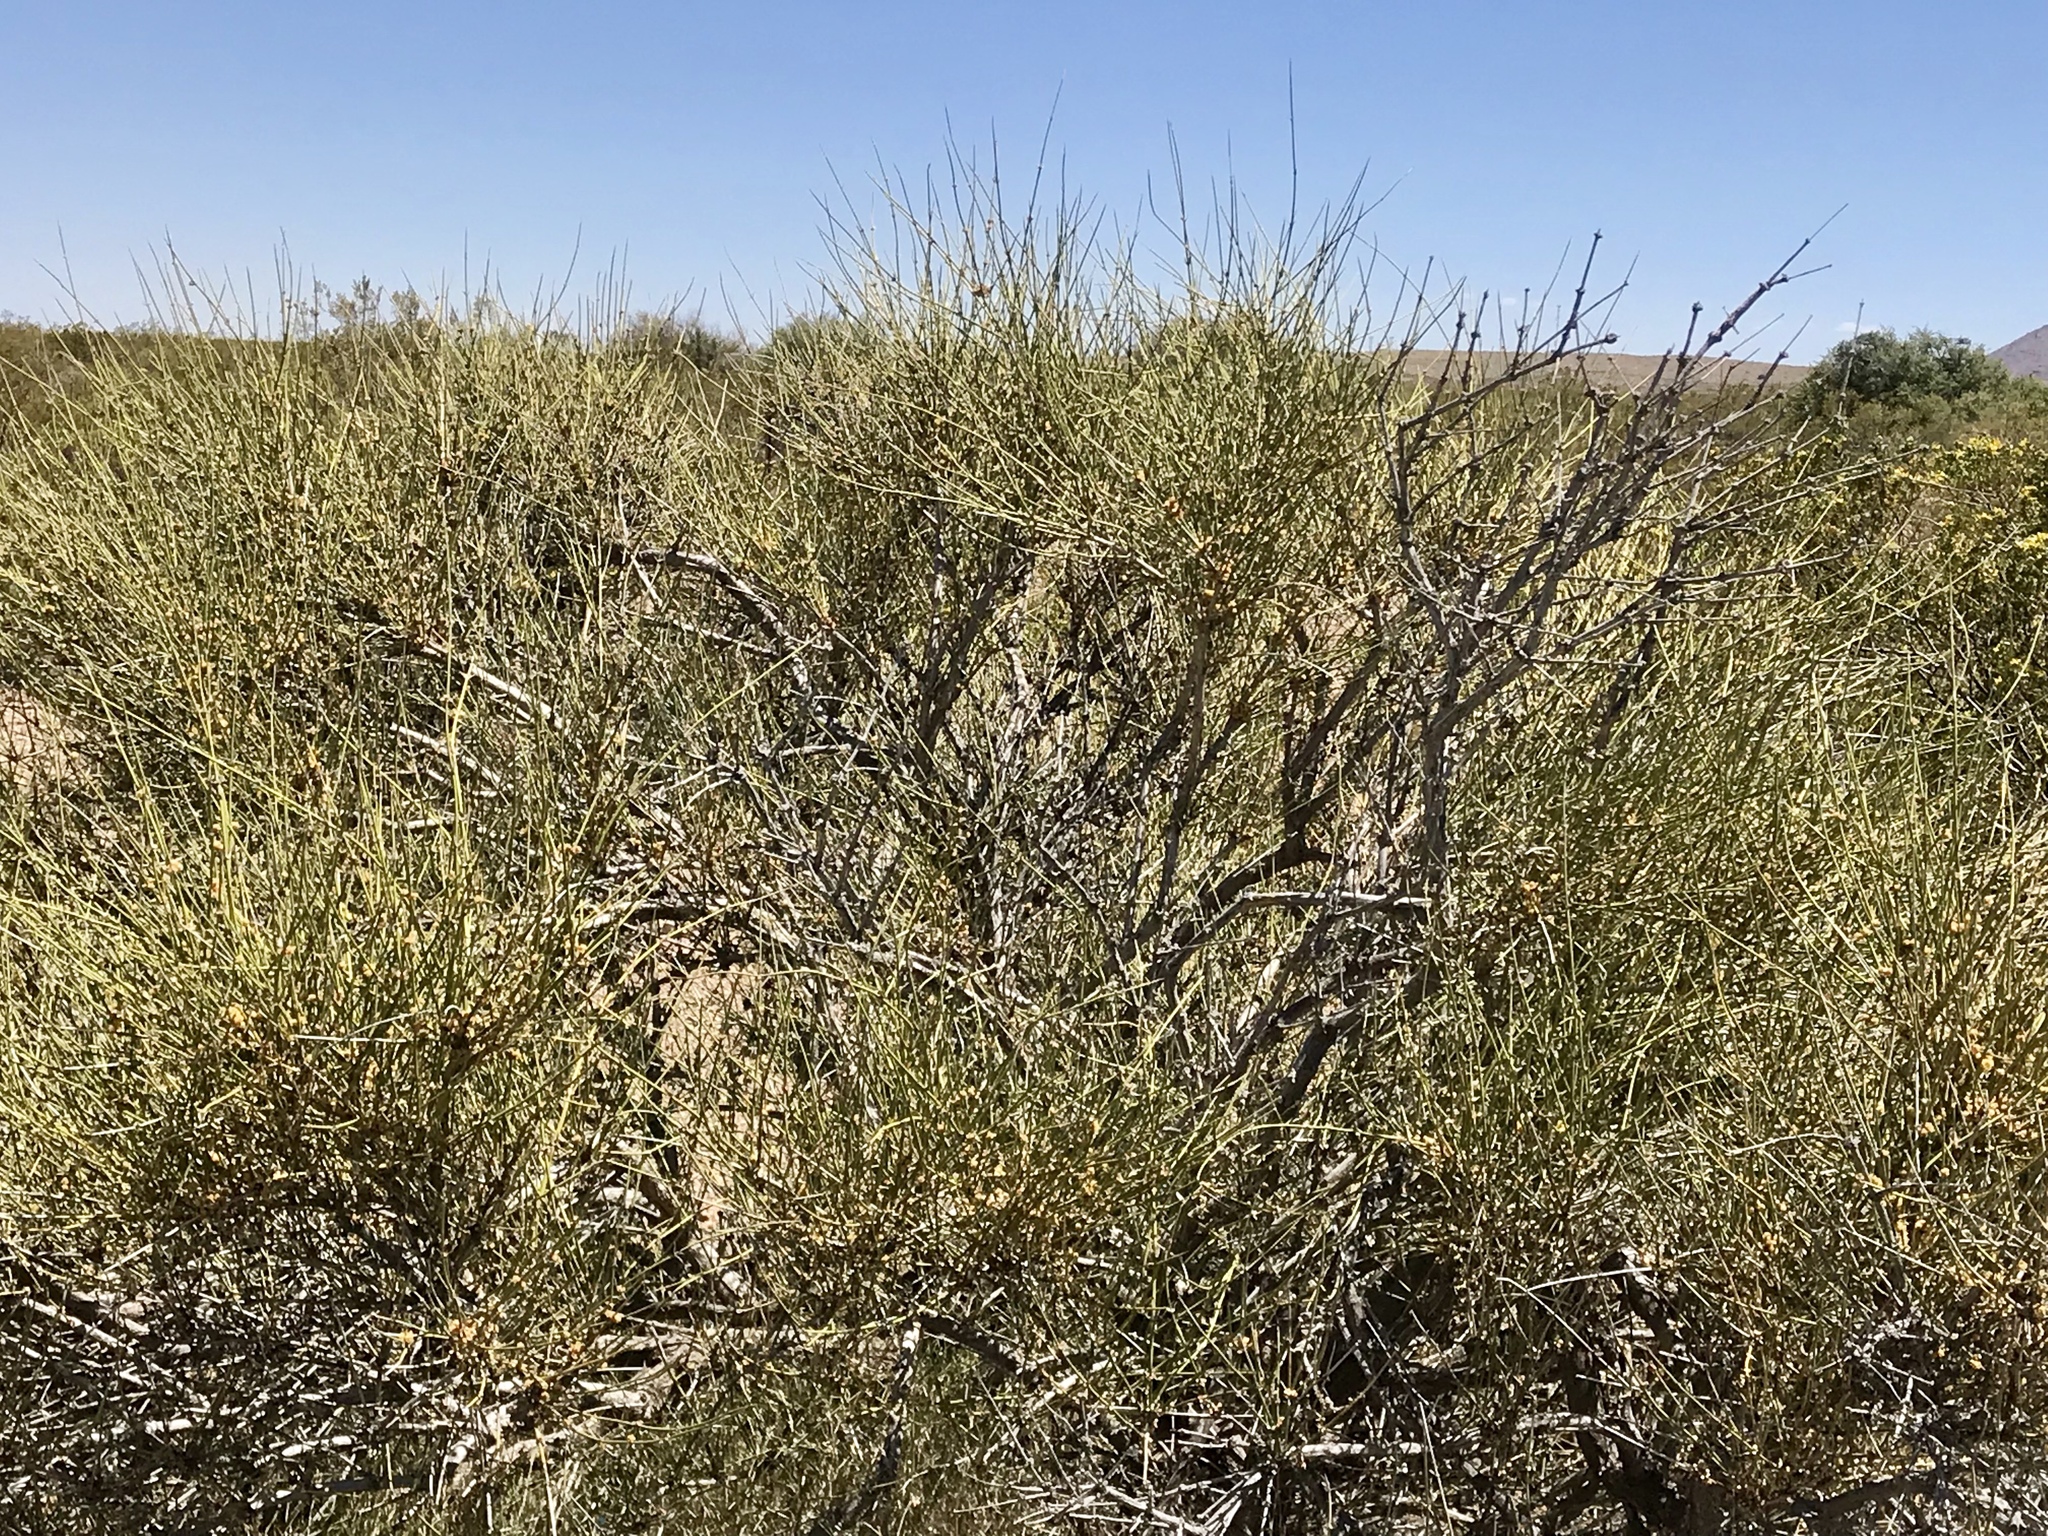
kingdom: Plantae
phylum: Tracheophyta
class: Gnetopsida
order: Ephedrales
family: Ephedraceae
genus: Ephedra
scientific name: Ephedra trifurca
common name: Mexican-tea
